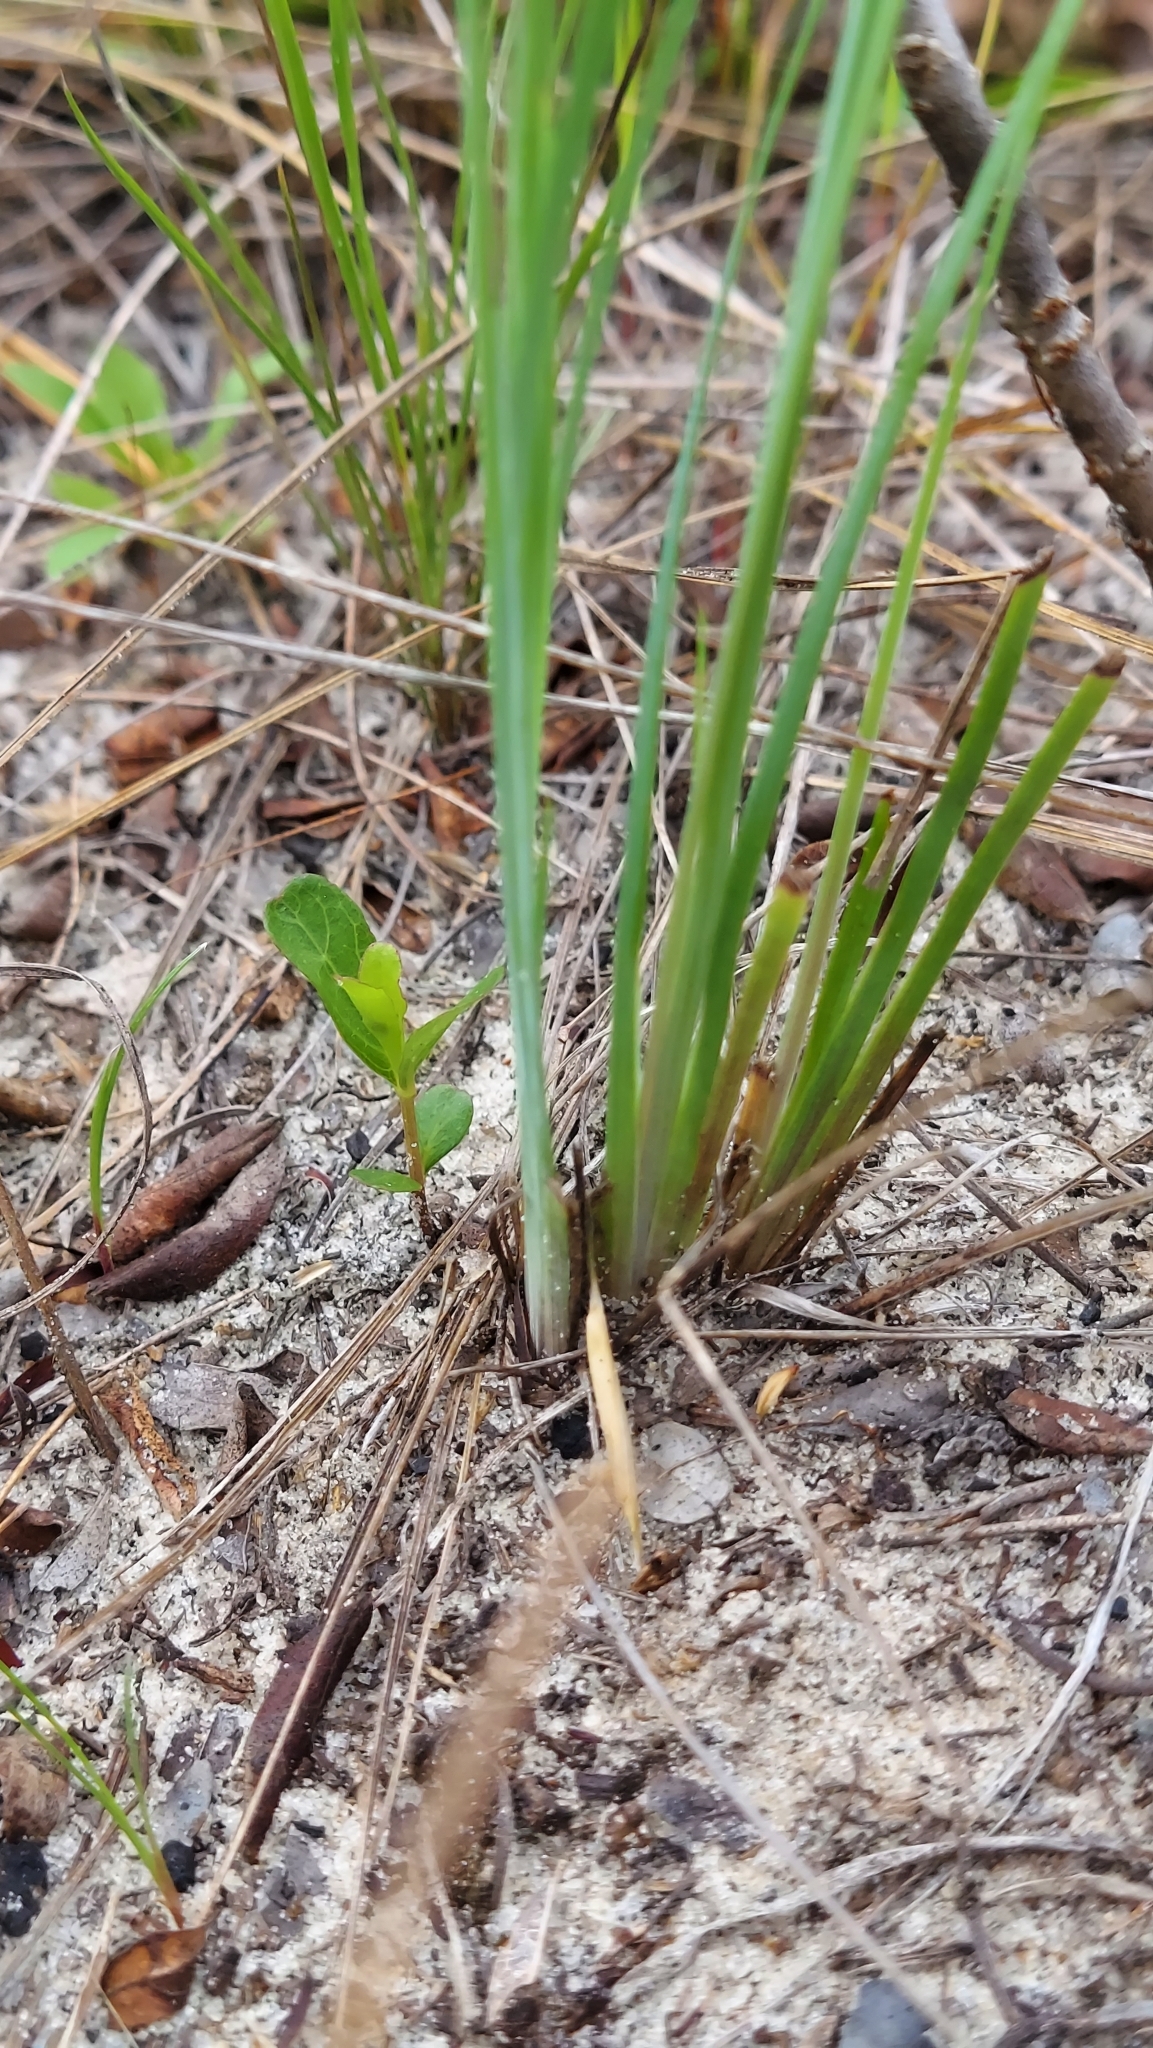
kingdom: Plantae
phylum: Tracheophyta
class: Liliopsida
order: Asparagales
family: Iridaceae
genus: Sisyrinchium
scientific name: Sisyrinchium xerophyllum
